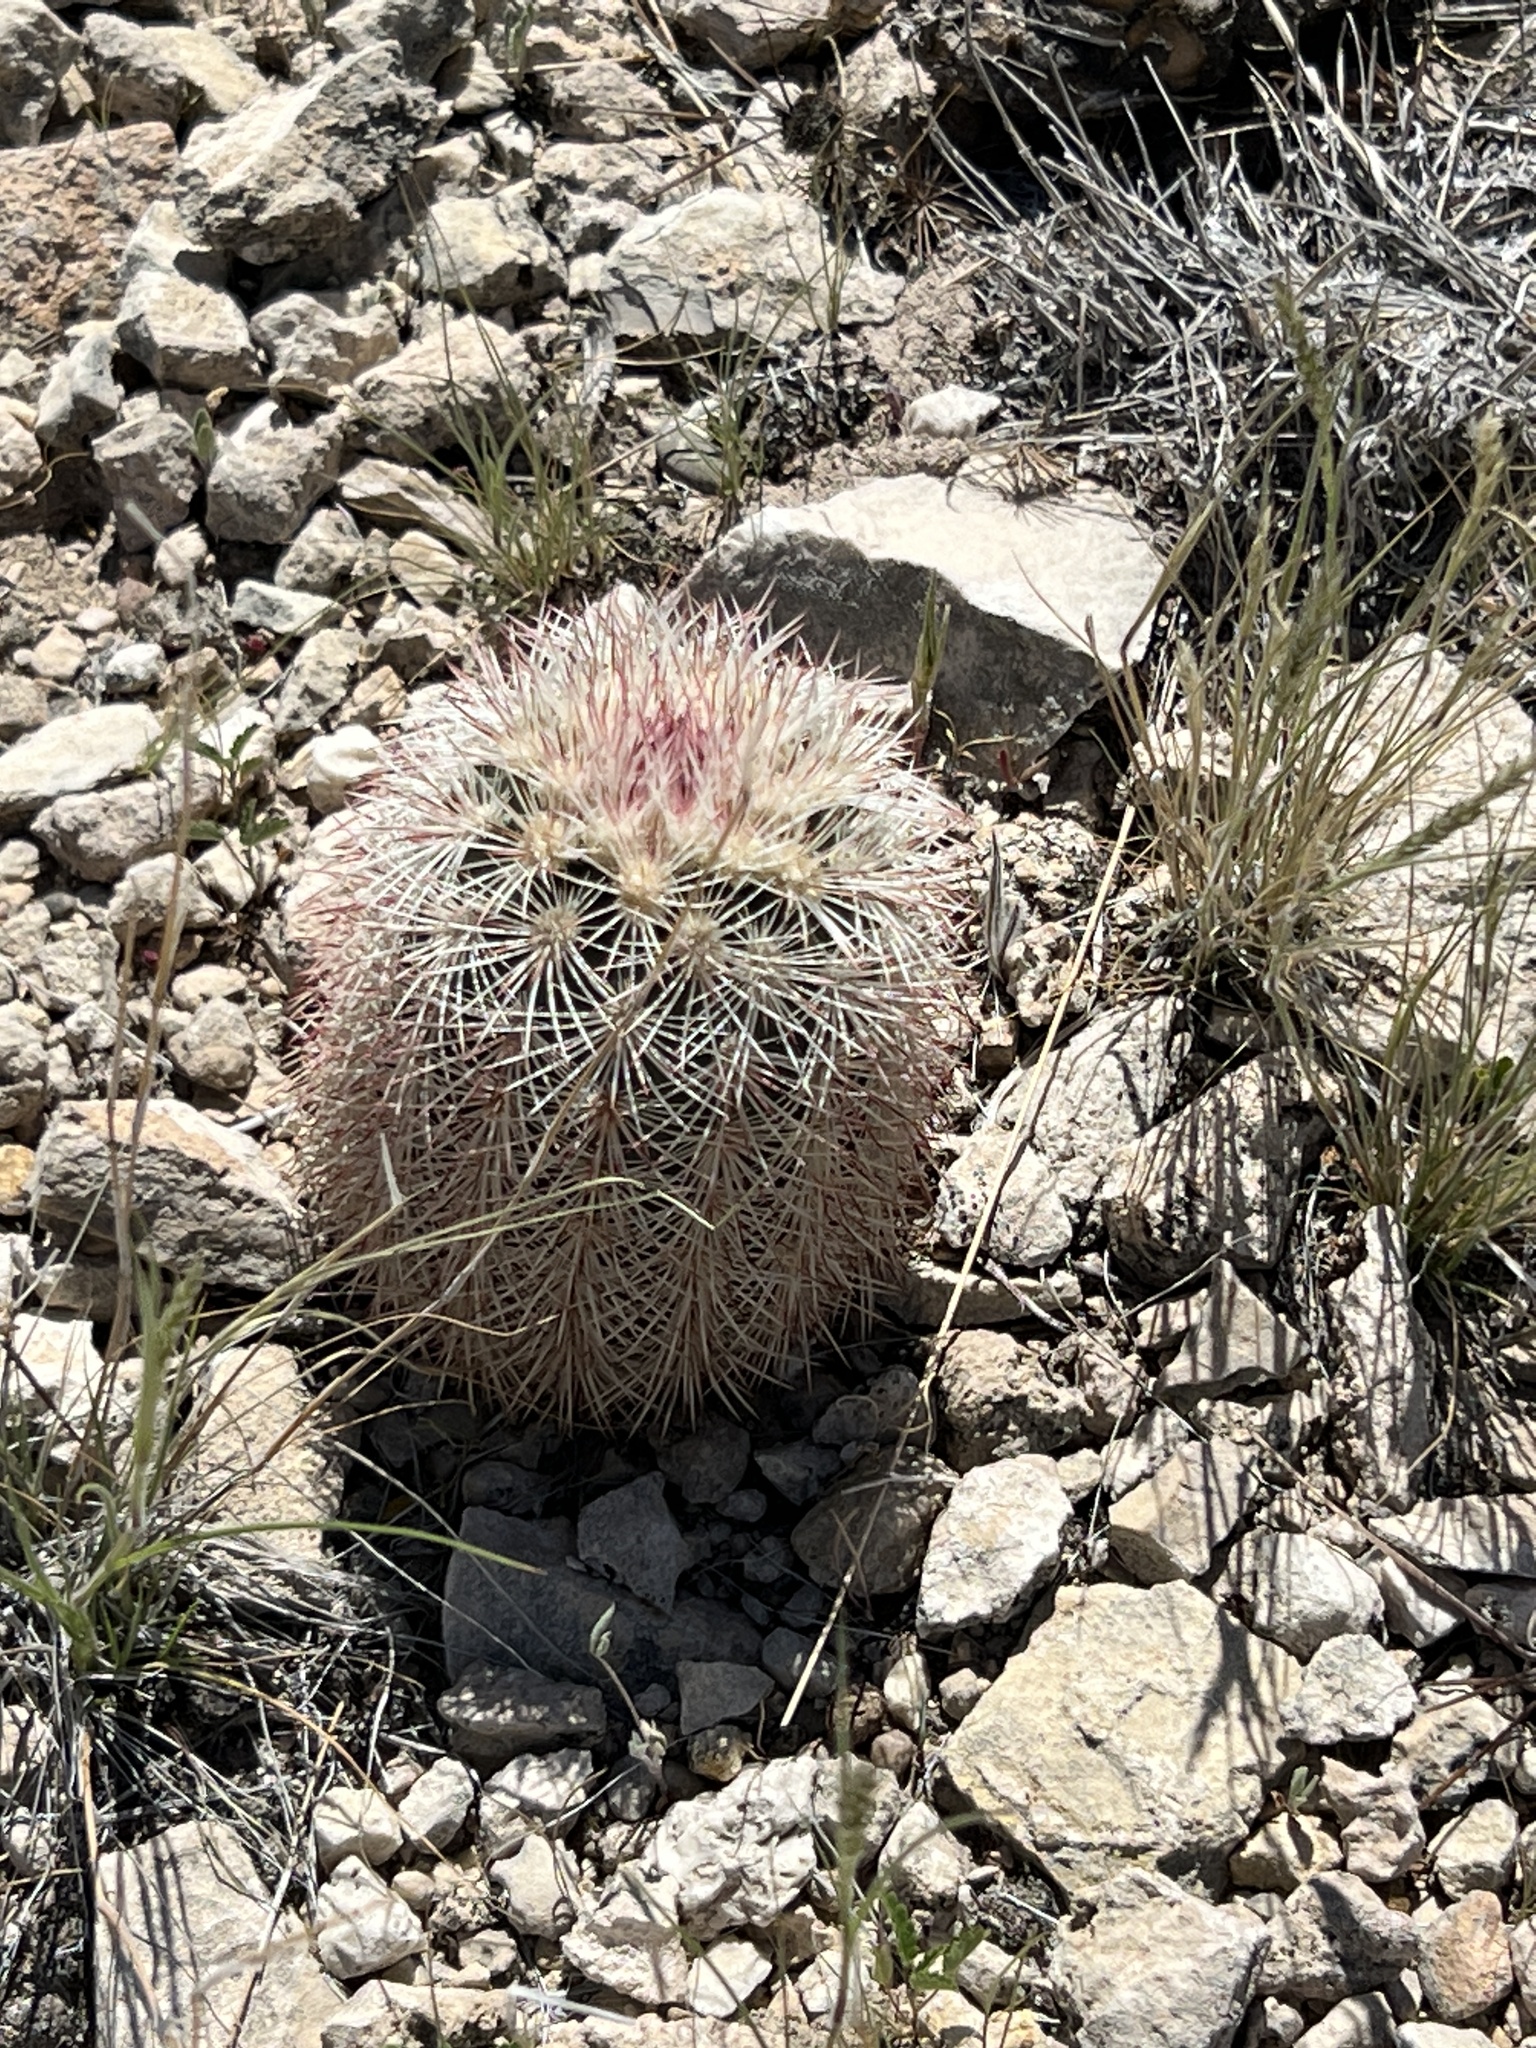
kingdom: Plantae
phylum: Tracheophyta
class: Magnoliopsida
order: Caryophyllales
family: Cactaceae
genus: Echinocereus
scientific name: Echinocereus dasyacanthus
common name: Spiny hedgehog cactus
